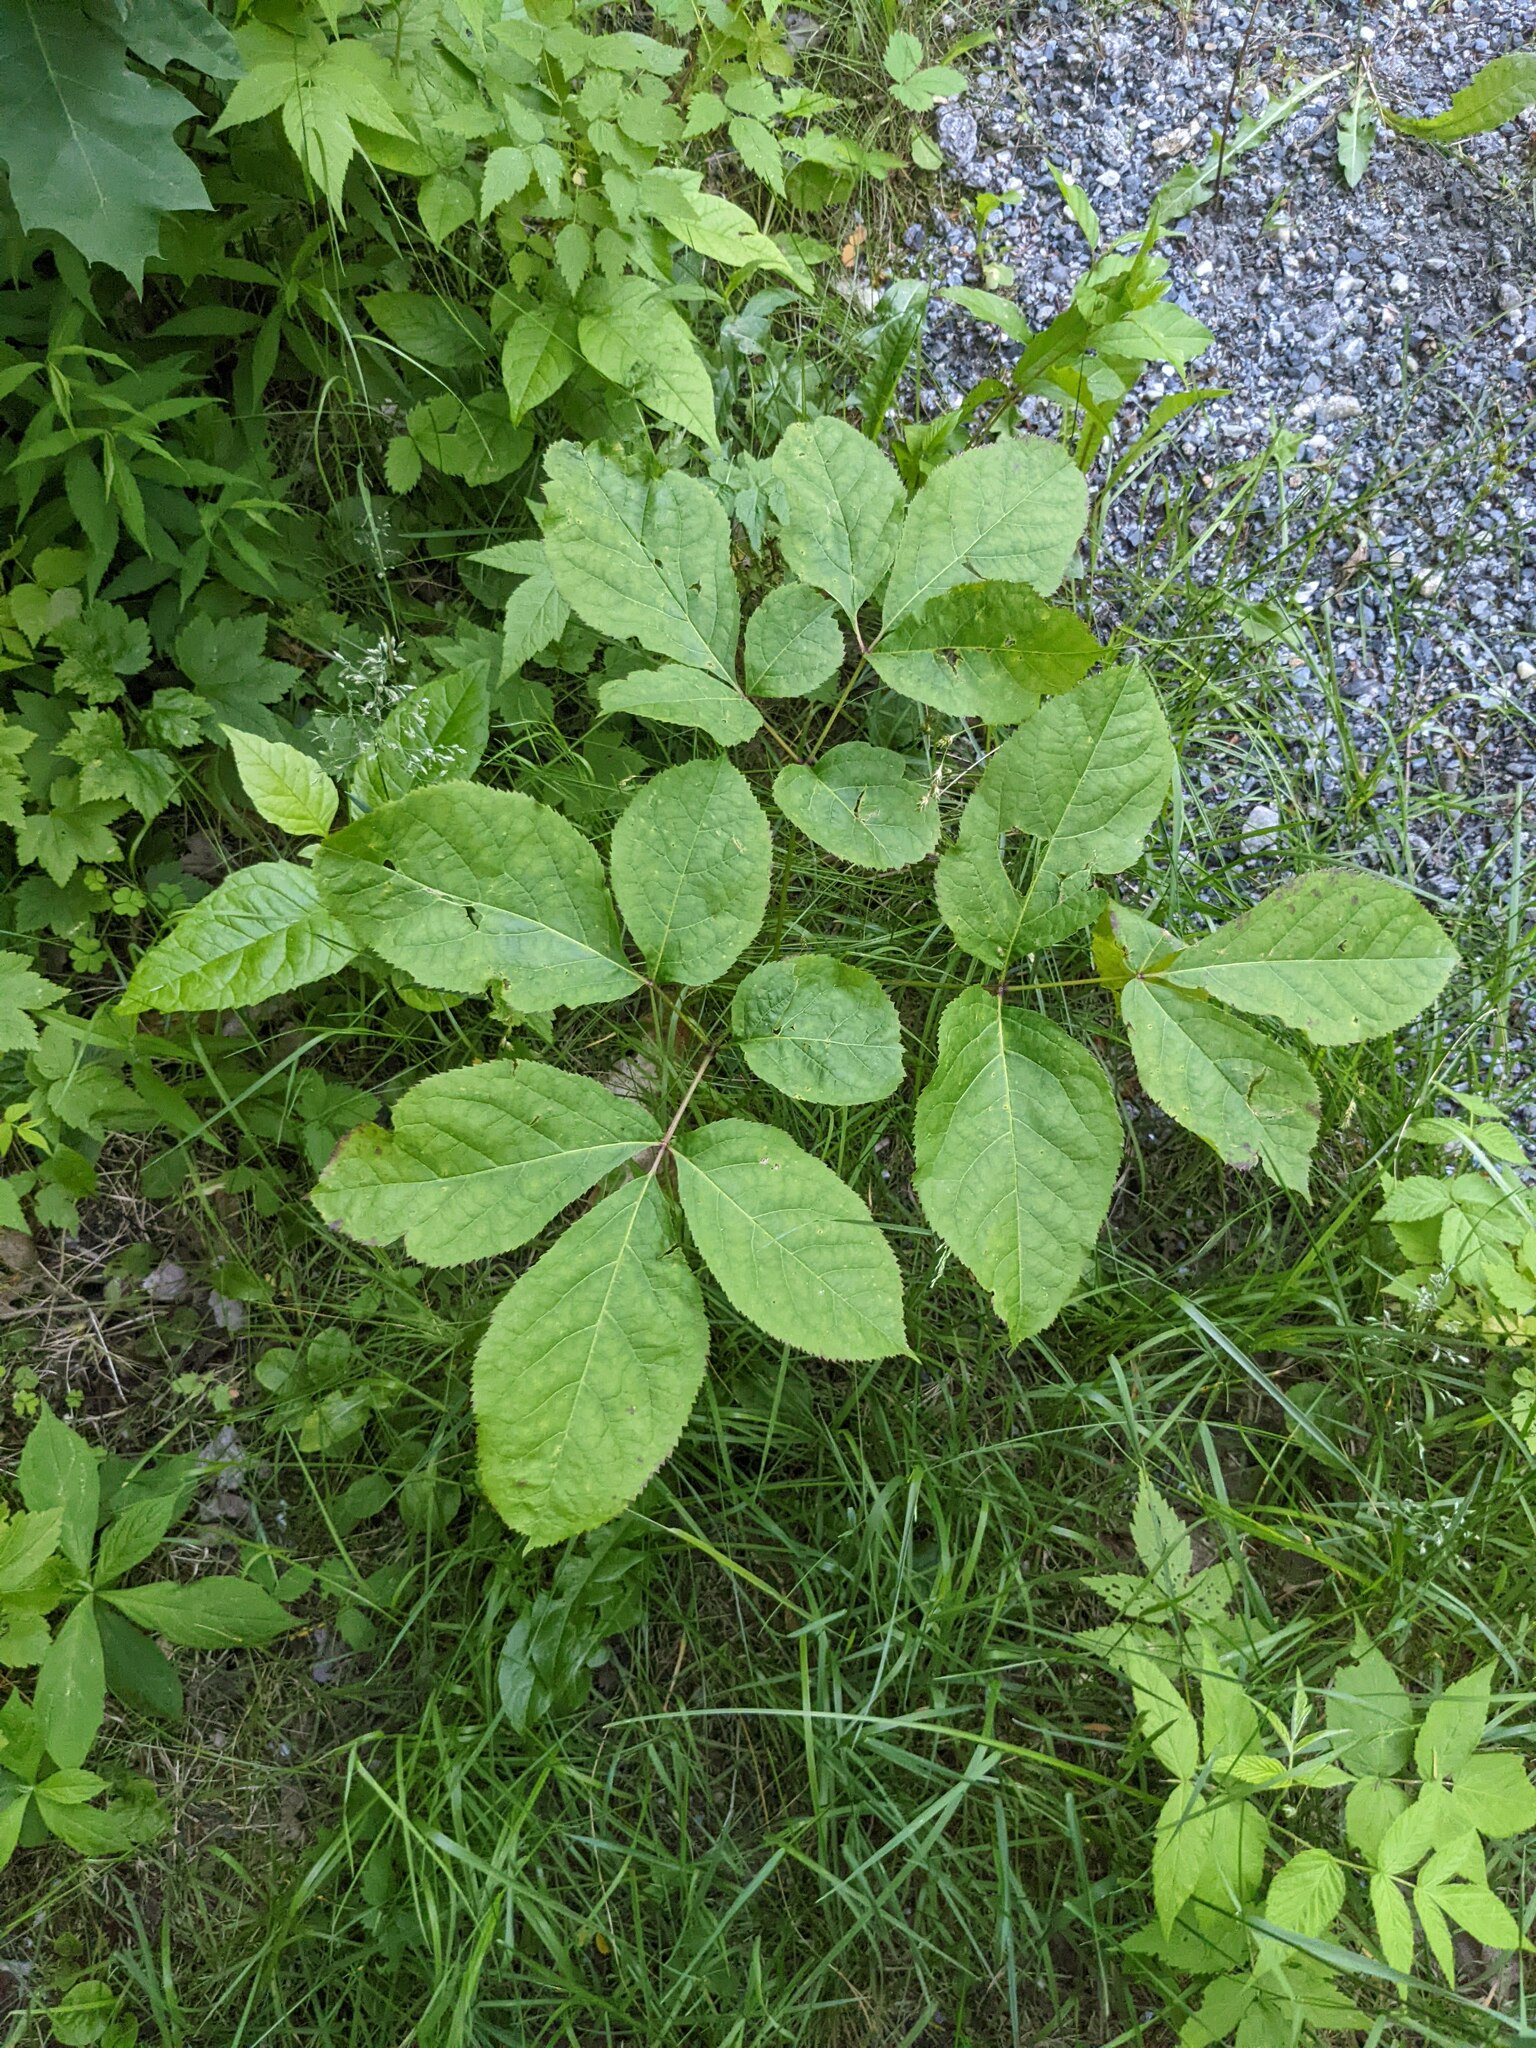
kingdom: Plantae
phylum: Tracheophyta
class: Magnoliopsida
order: Apiales
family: Araliaceae
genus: Aralia
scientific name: Aralia nudicaulis
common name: Wild sarsaparilla
